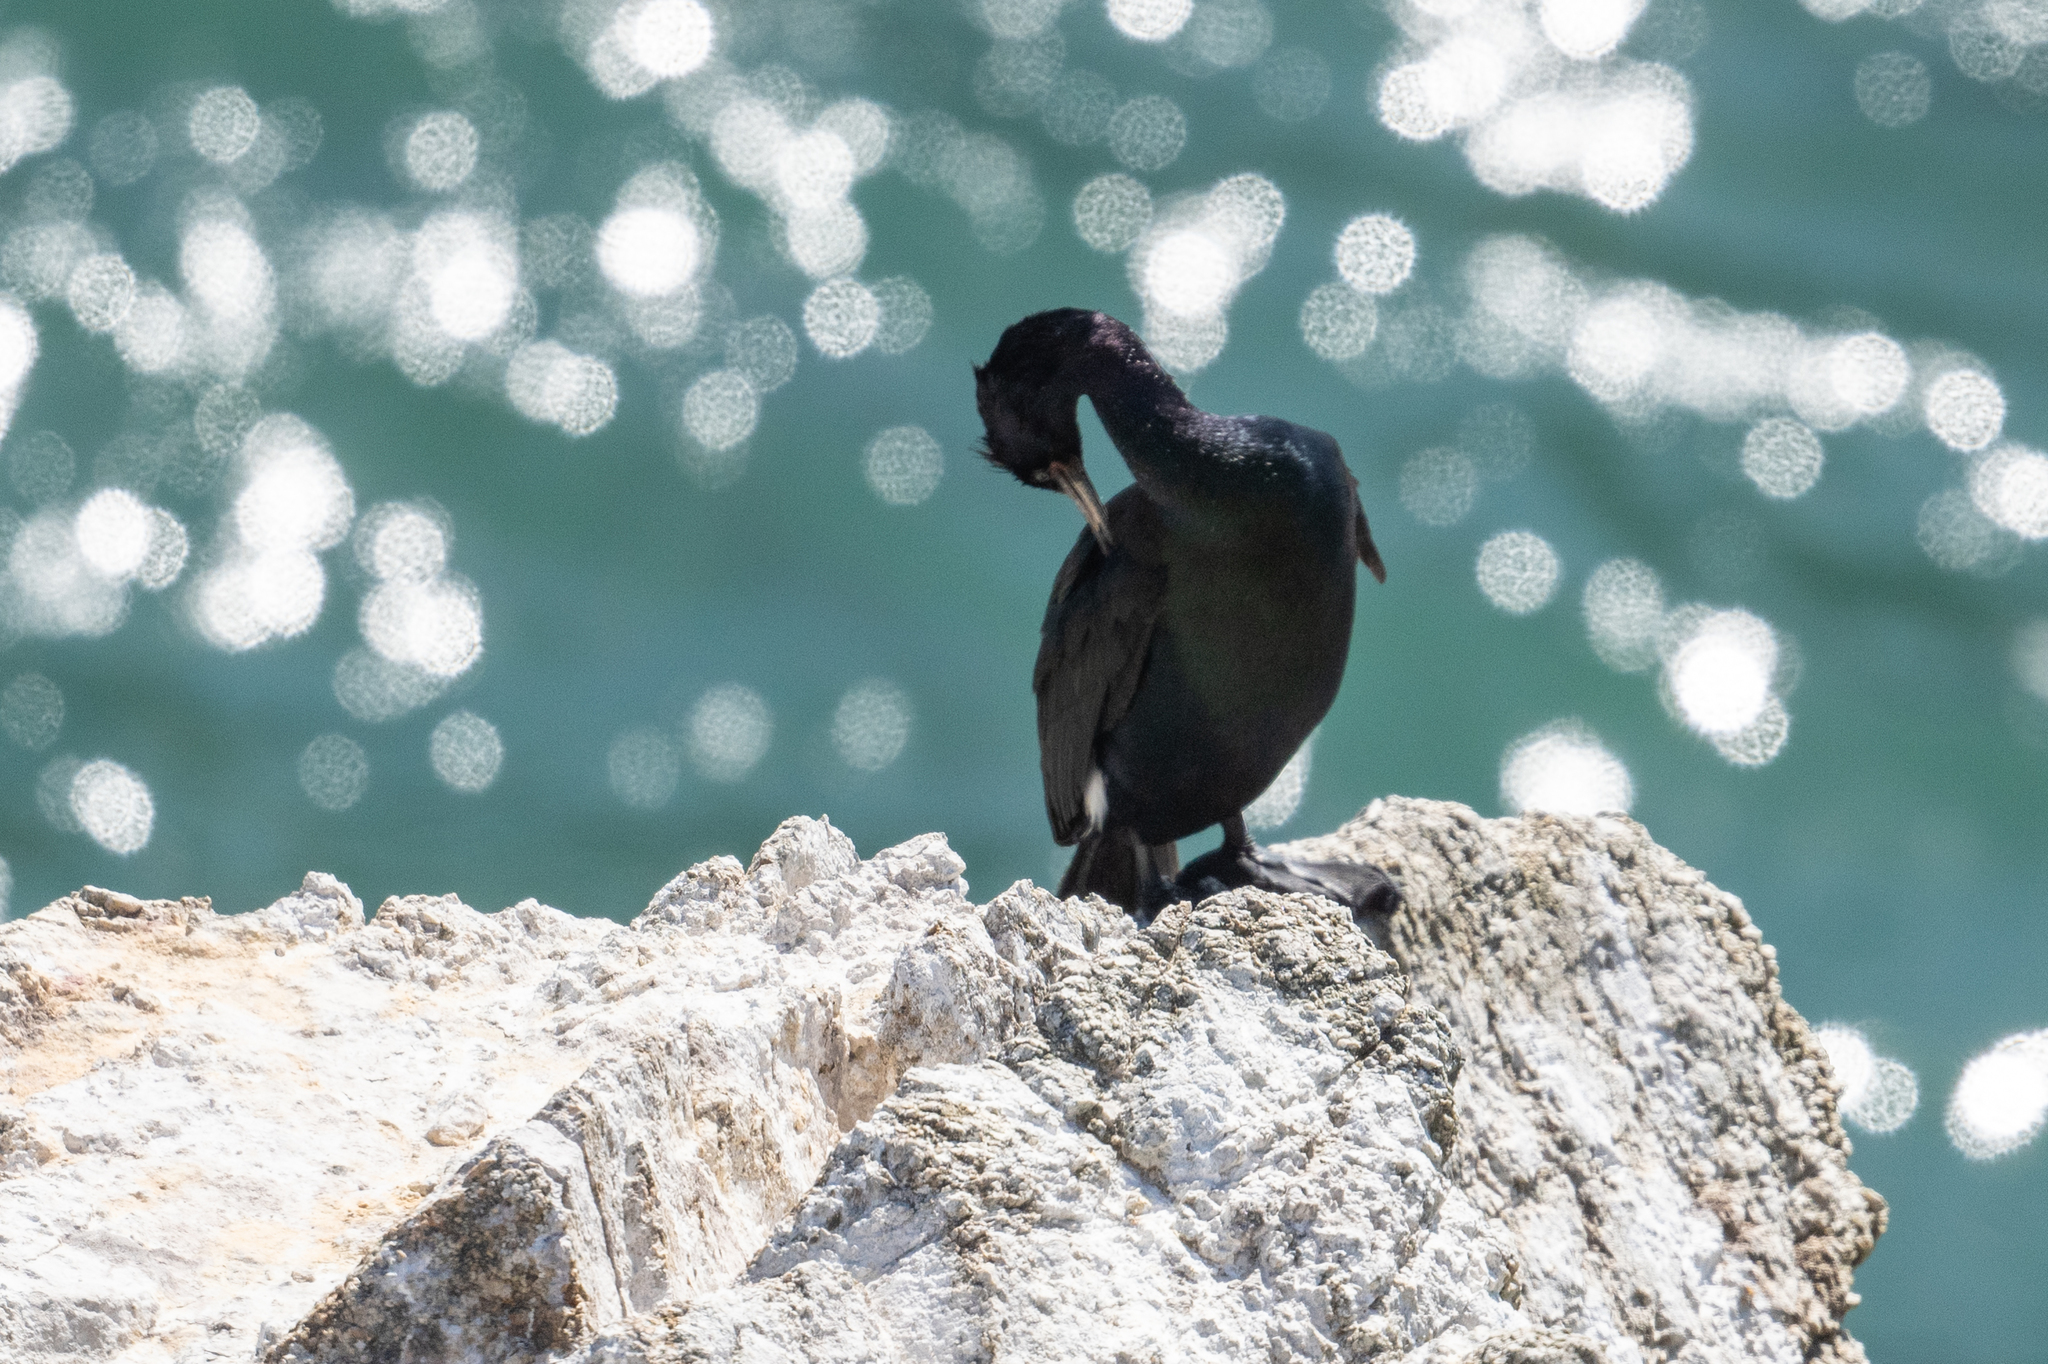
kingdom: Animalia
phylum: Chordata
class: Aves
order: Suliformes
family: Phalacrocoracidae
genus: Phalacrocorax
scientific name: Phalacrocorax pelagicus
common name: Pelagic cormorant
